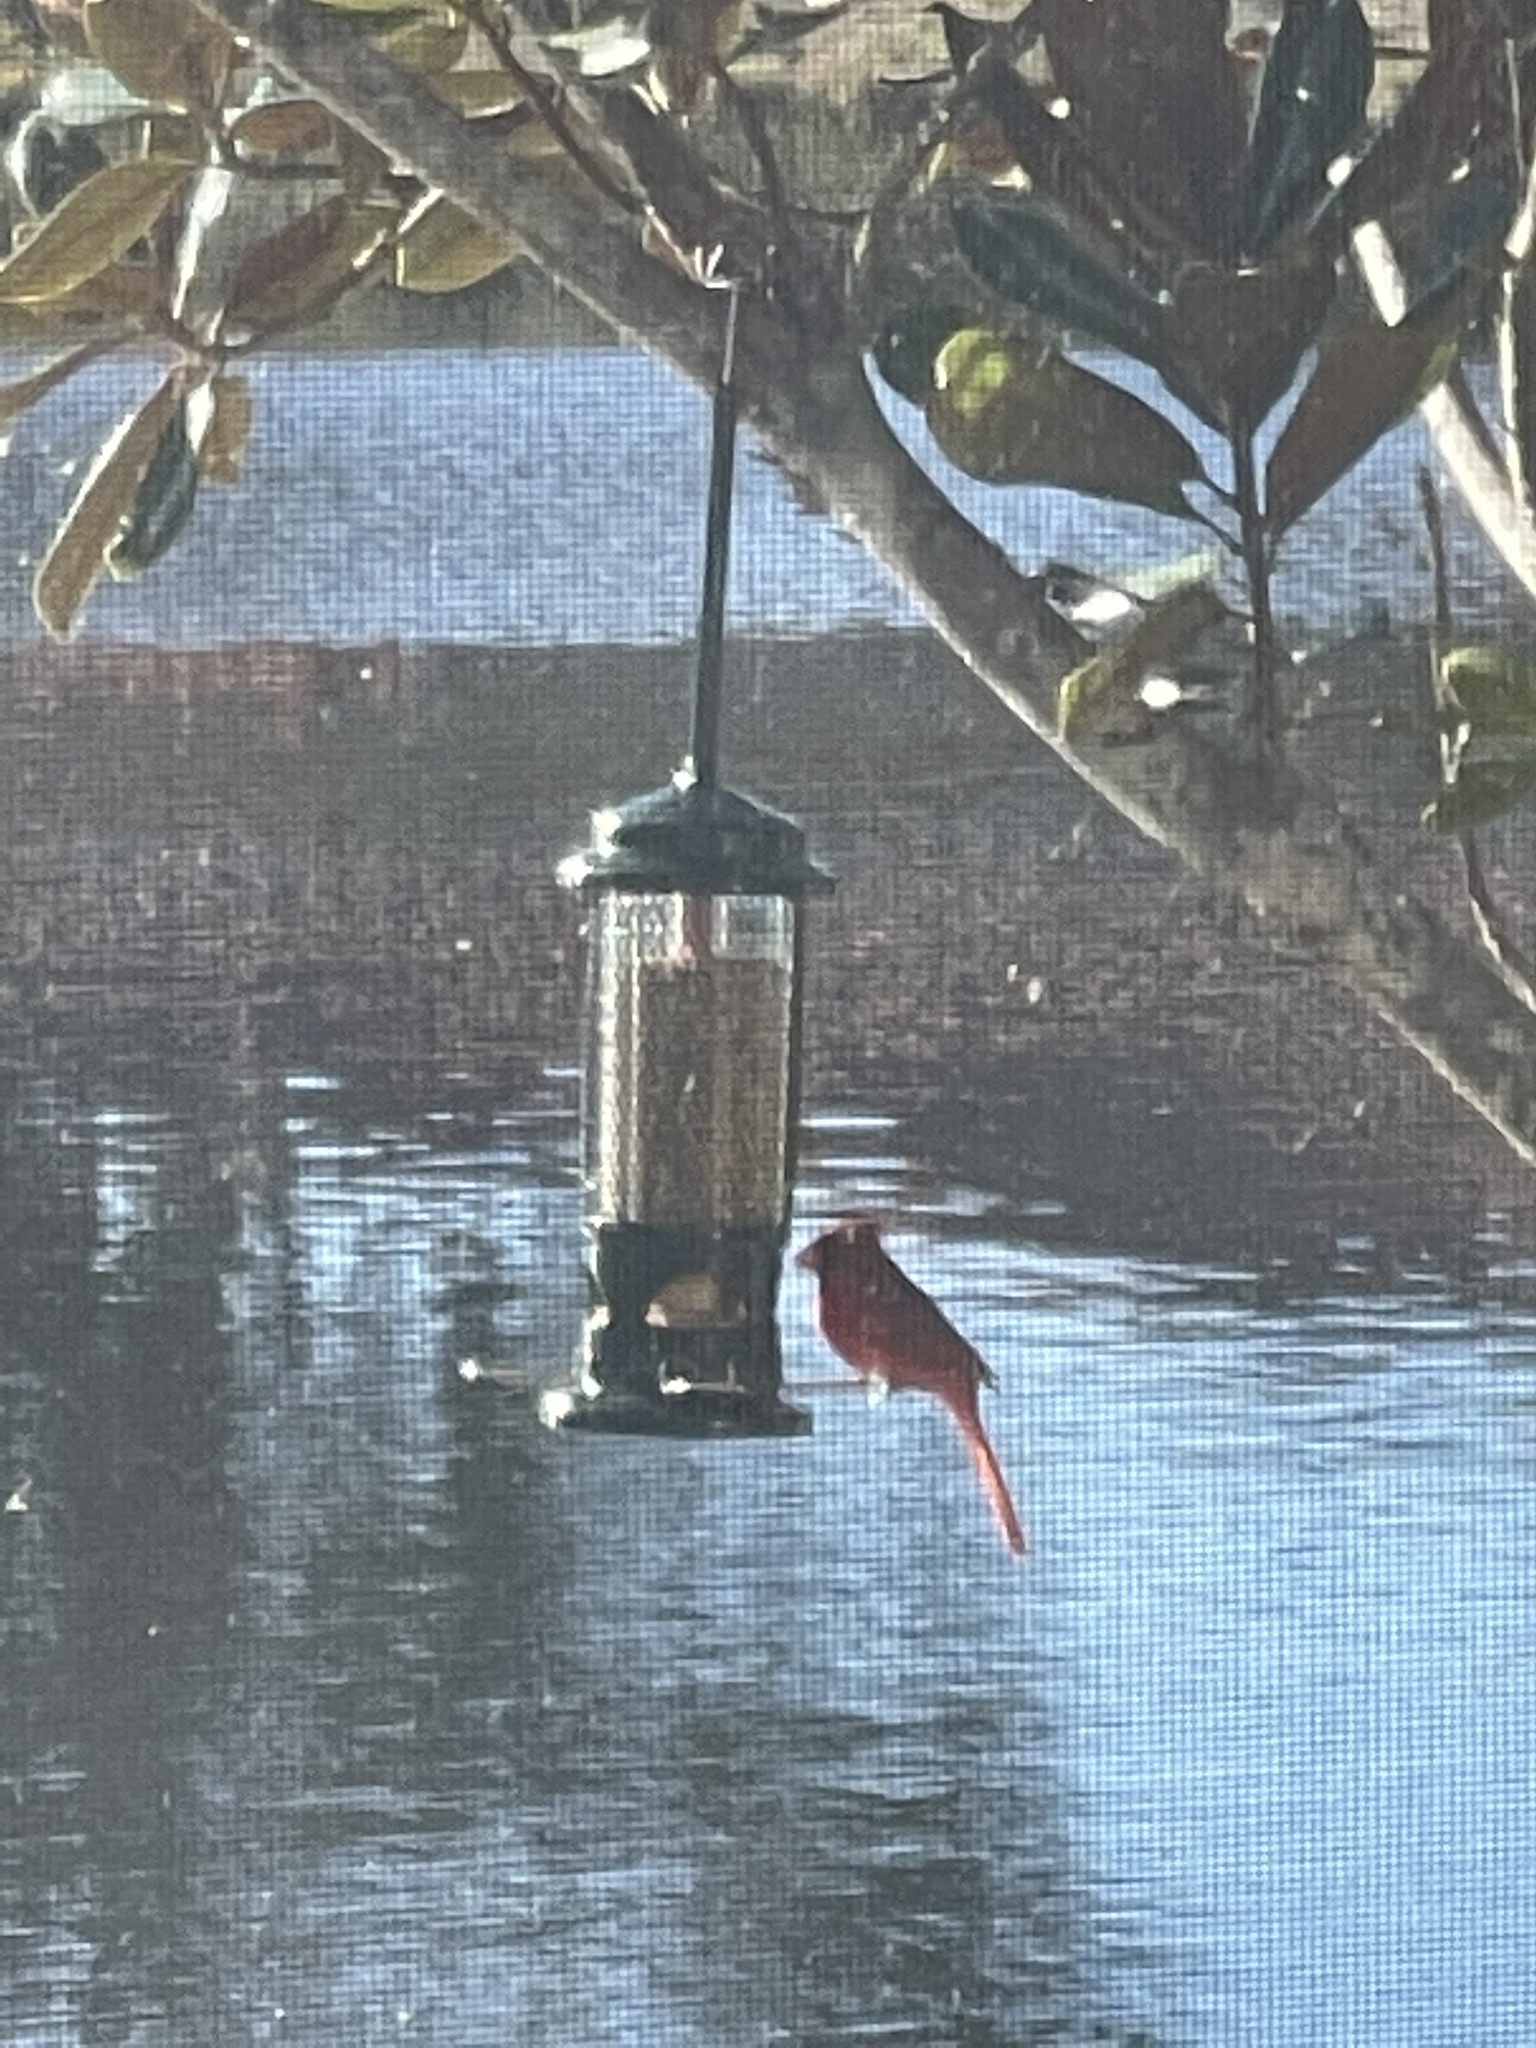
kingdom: Animalia
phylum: Chordata
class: Aves
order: Passeriformes
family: Cardinalidae
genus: Cardinalis
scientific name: Cardinalis cardinalis
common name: Northern cardinal
